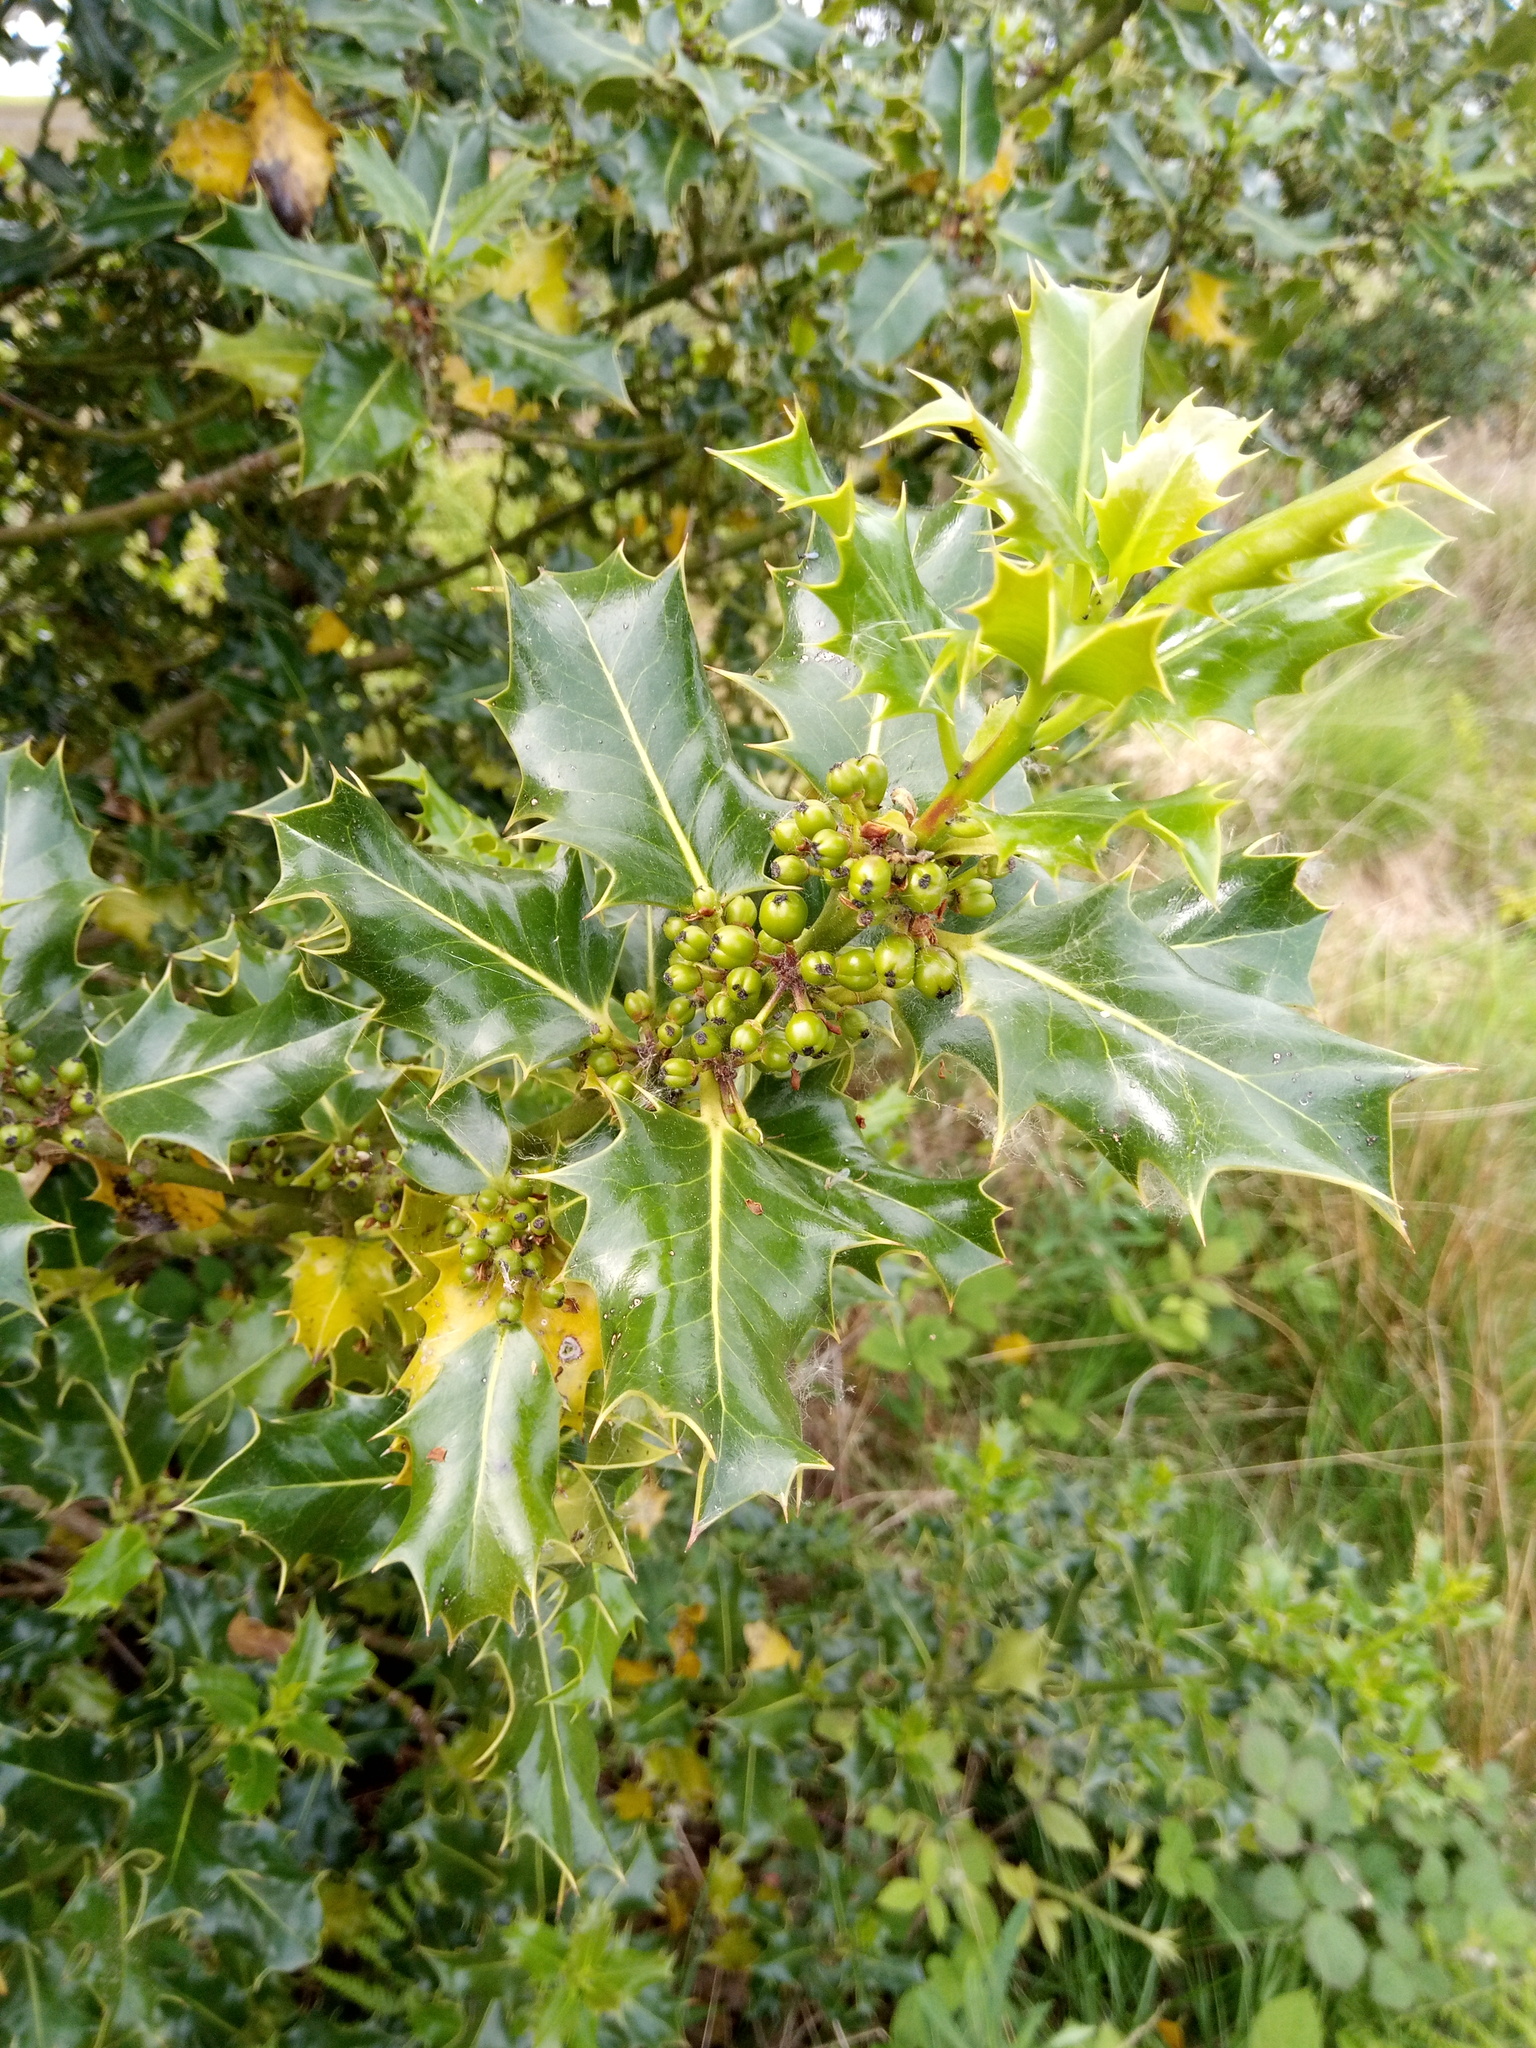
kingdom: Plantae
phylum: Tracheophyta
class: Magnoliopsida
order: Aquifoliales
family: Aquifoliaceae
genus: Ilex
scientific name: Ilex aquifolium
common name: English holly
